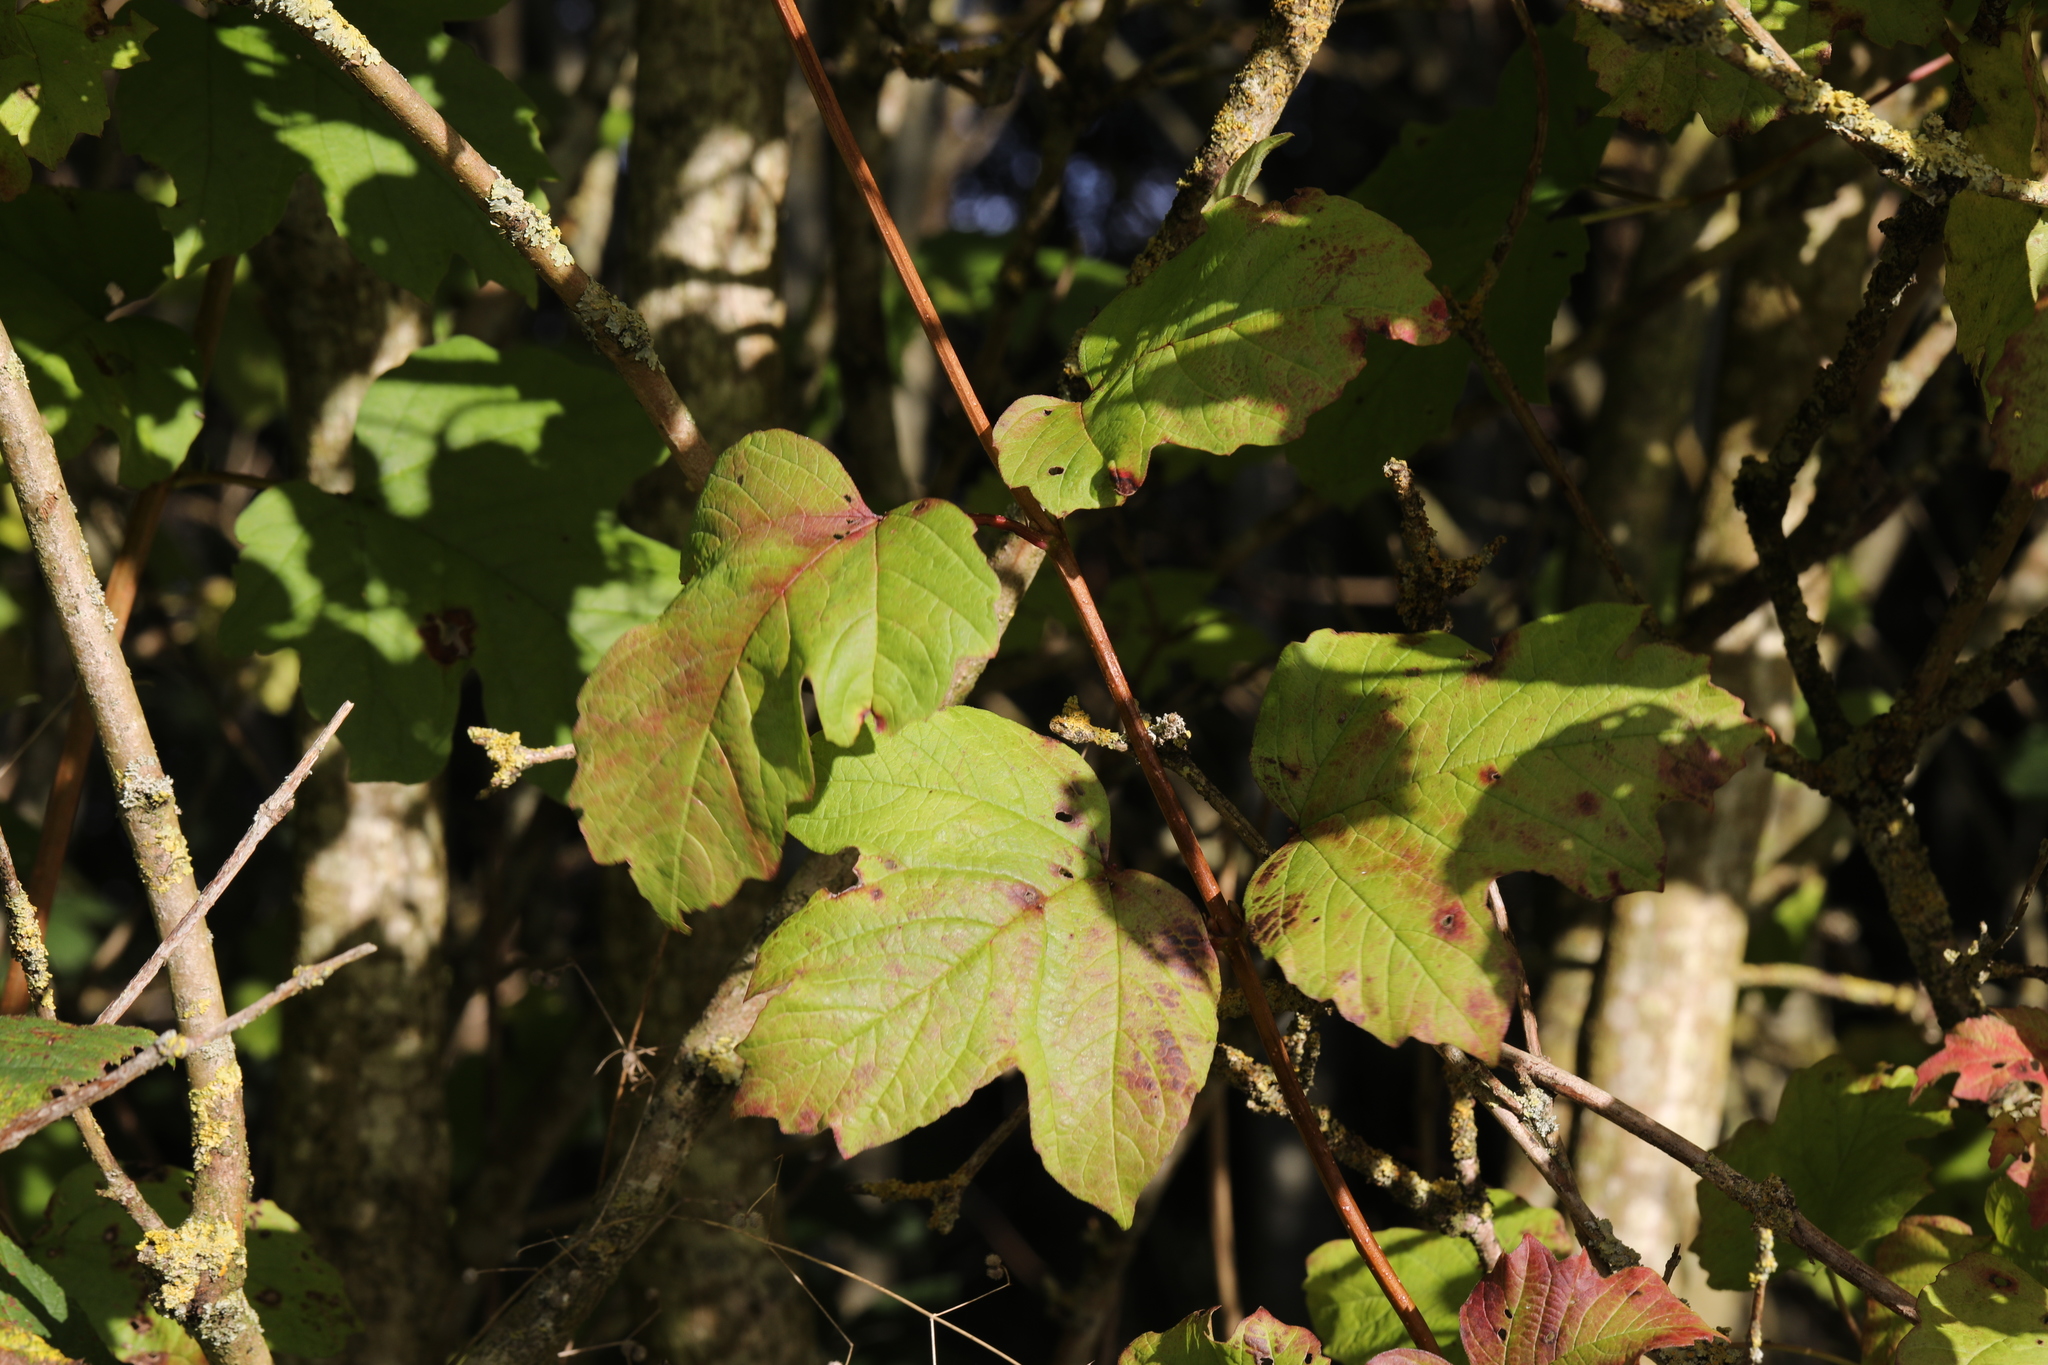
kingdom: Plantae
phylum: Tracheophyta
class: Magnoliopsida
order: Dipsacales
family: Viburnaceae
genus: Viburnum
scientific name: Viburnum opulus
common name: Guelder-rose
